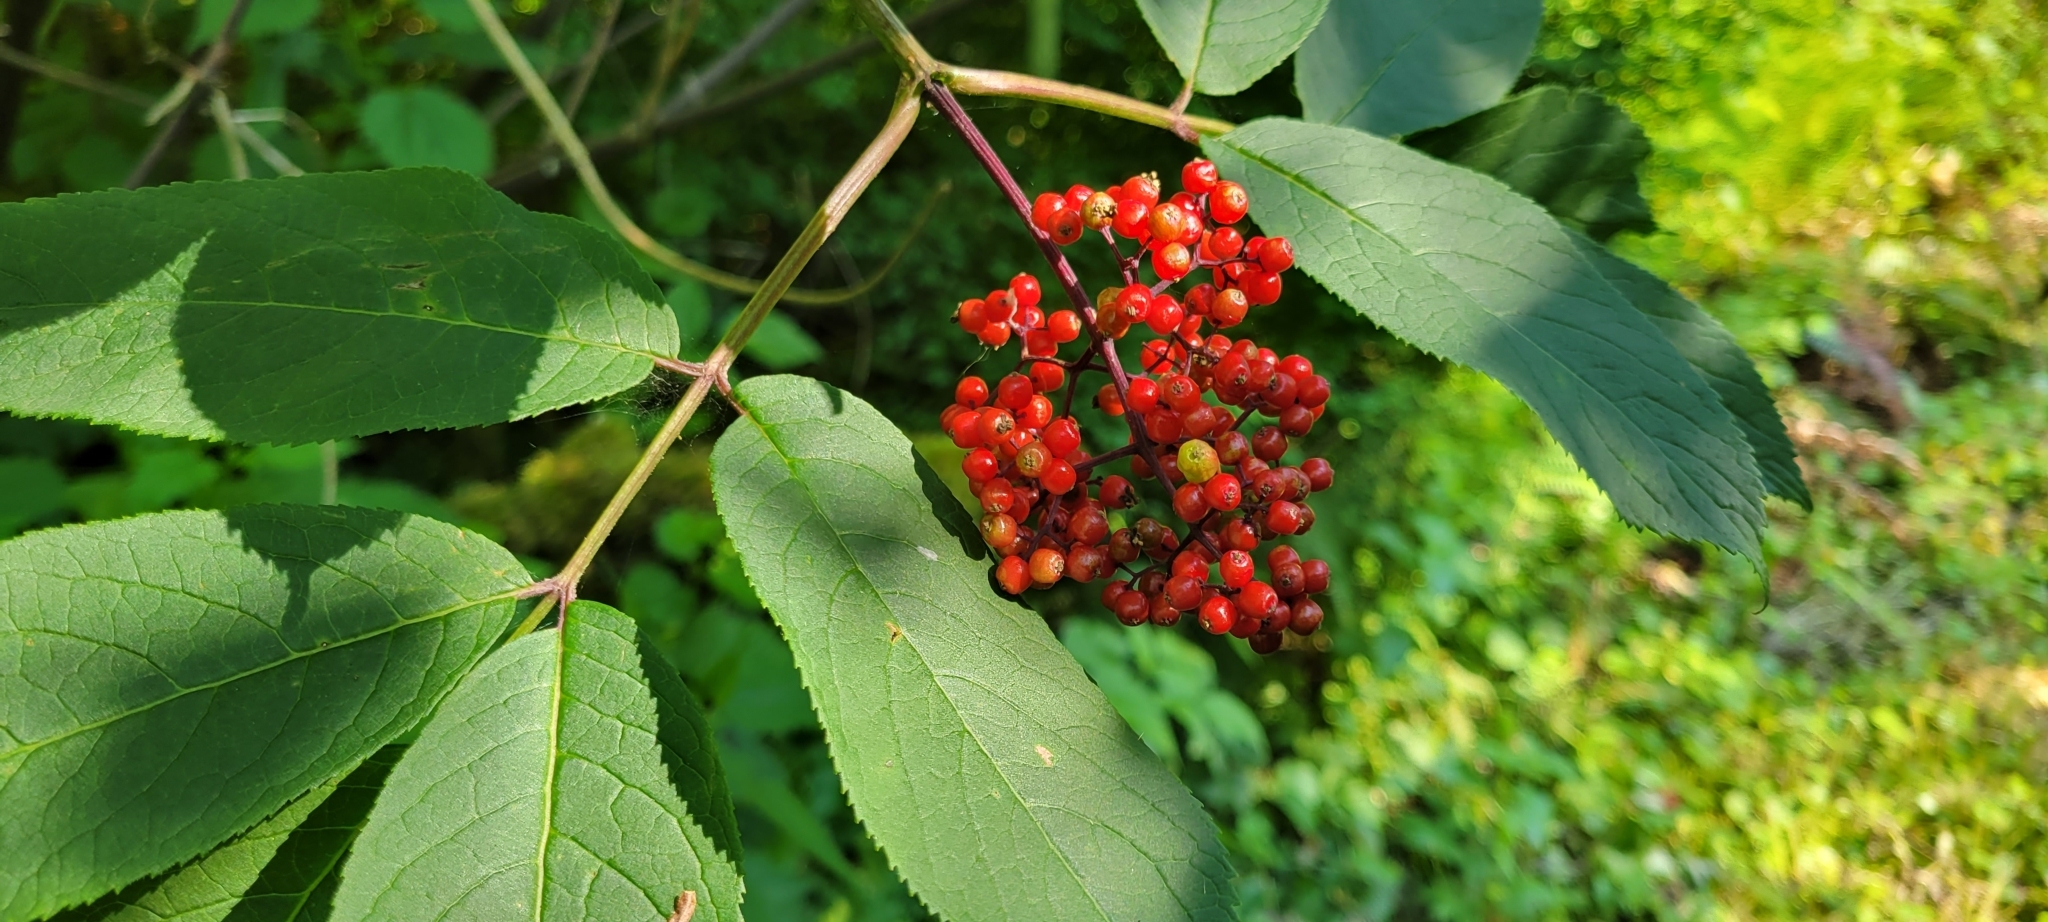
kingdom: Plantae
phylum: Tracheophyta
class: Magnoliopsida
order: Dipsacales
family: Viburnaceae
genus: Sambucus
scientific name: Sambucus racemosa
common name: Red-berried elder
